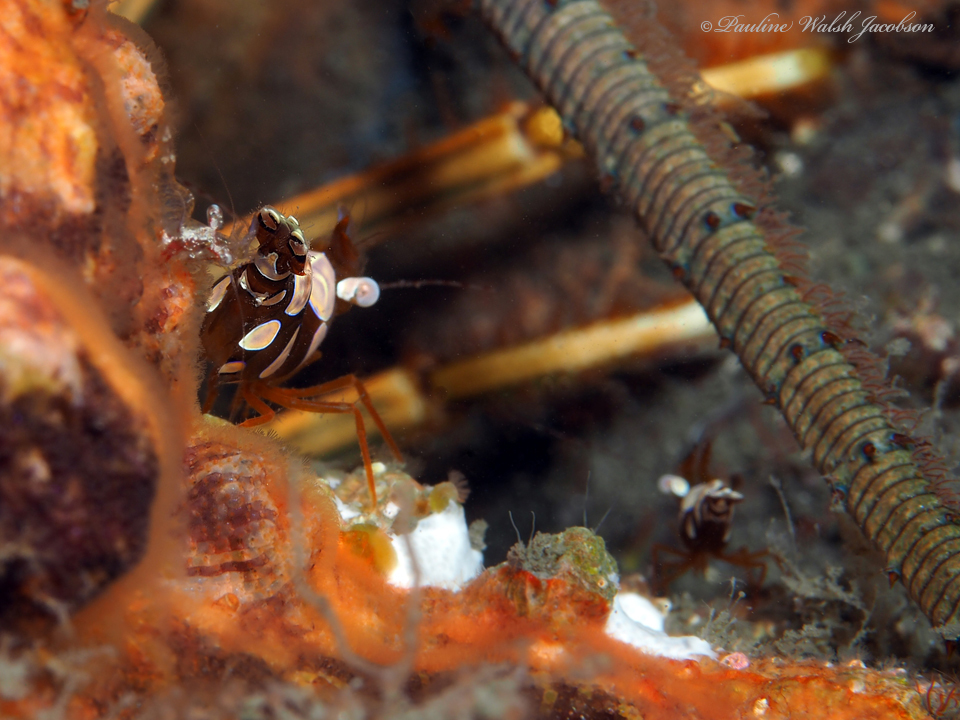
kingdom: Animalia
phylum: Arthropoda
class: Malacostraca
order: Decapoda
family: Thoridae
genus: Thor
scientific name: Thor dicaprio
